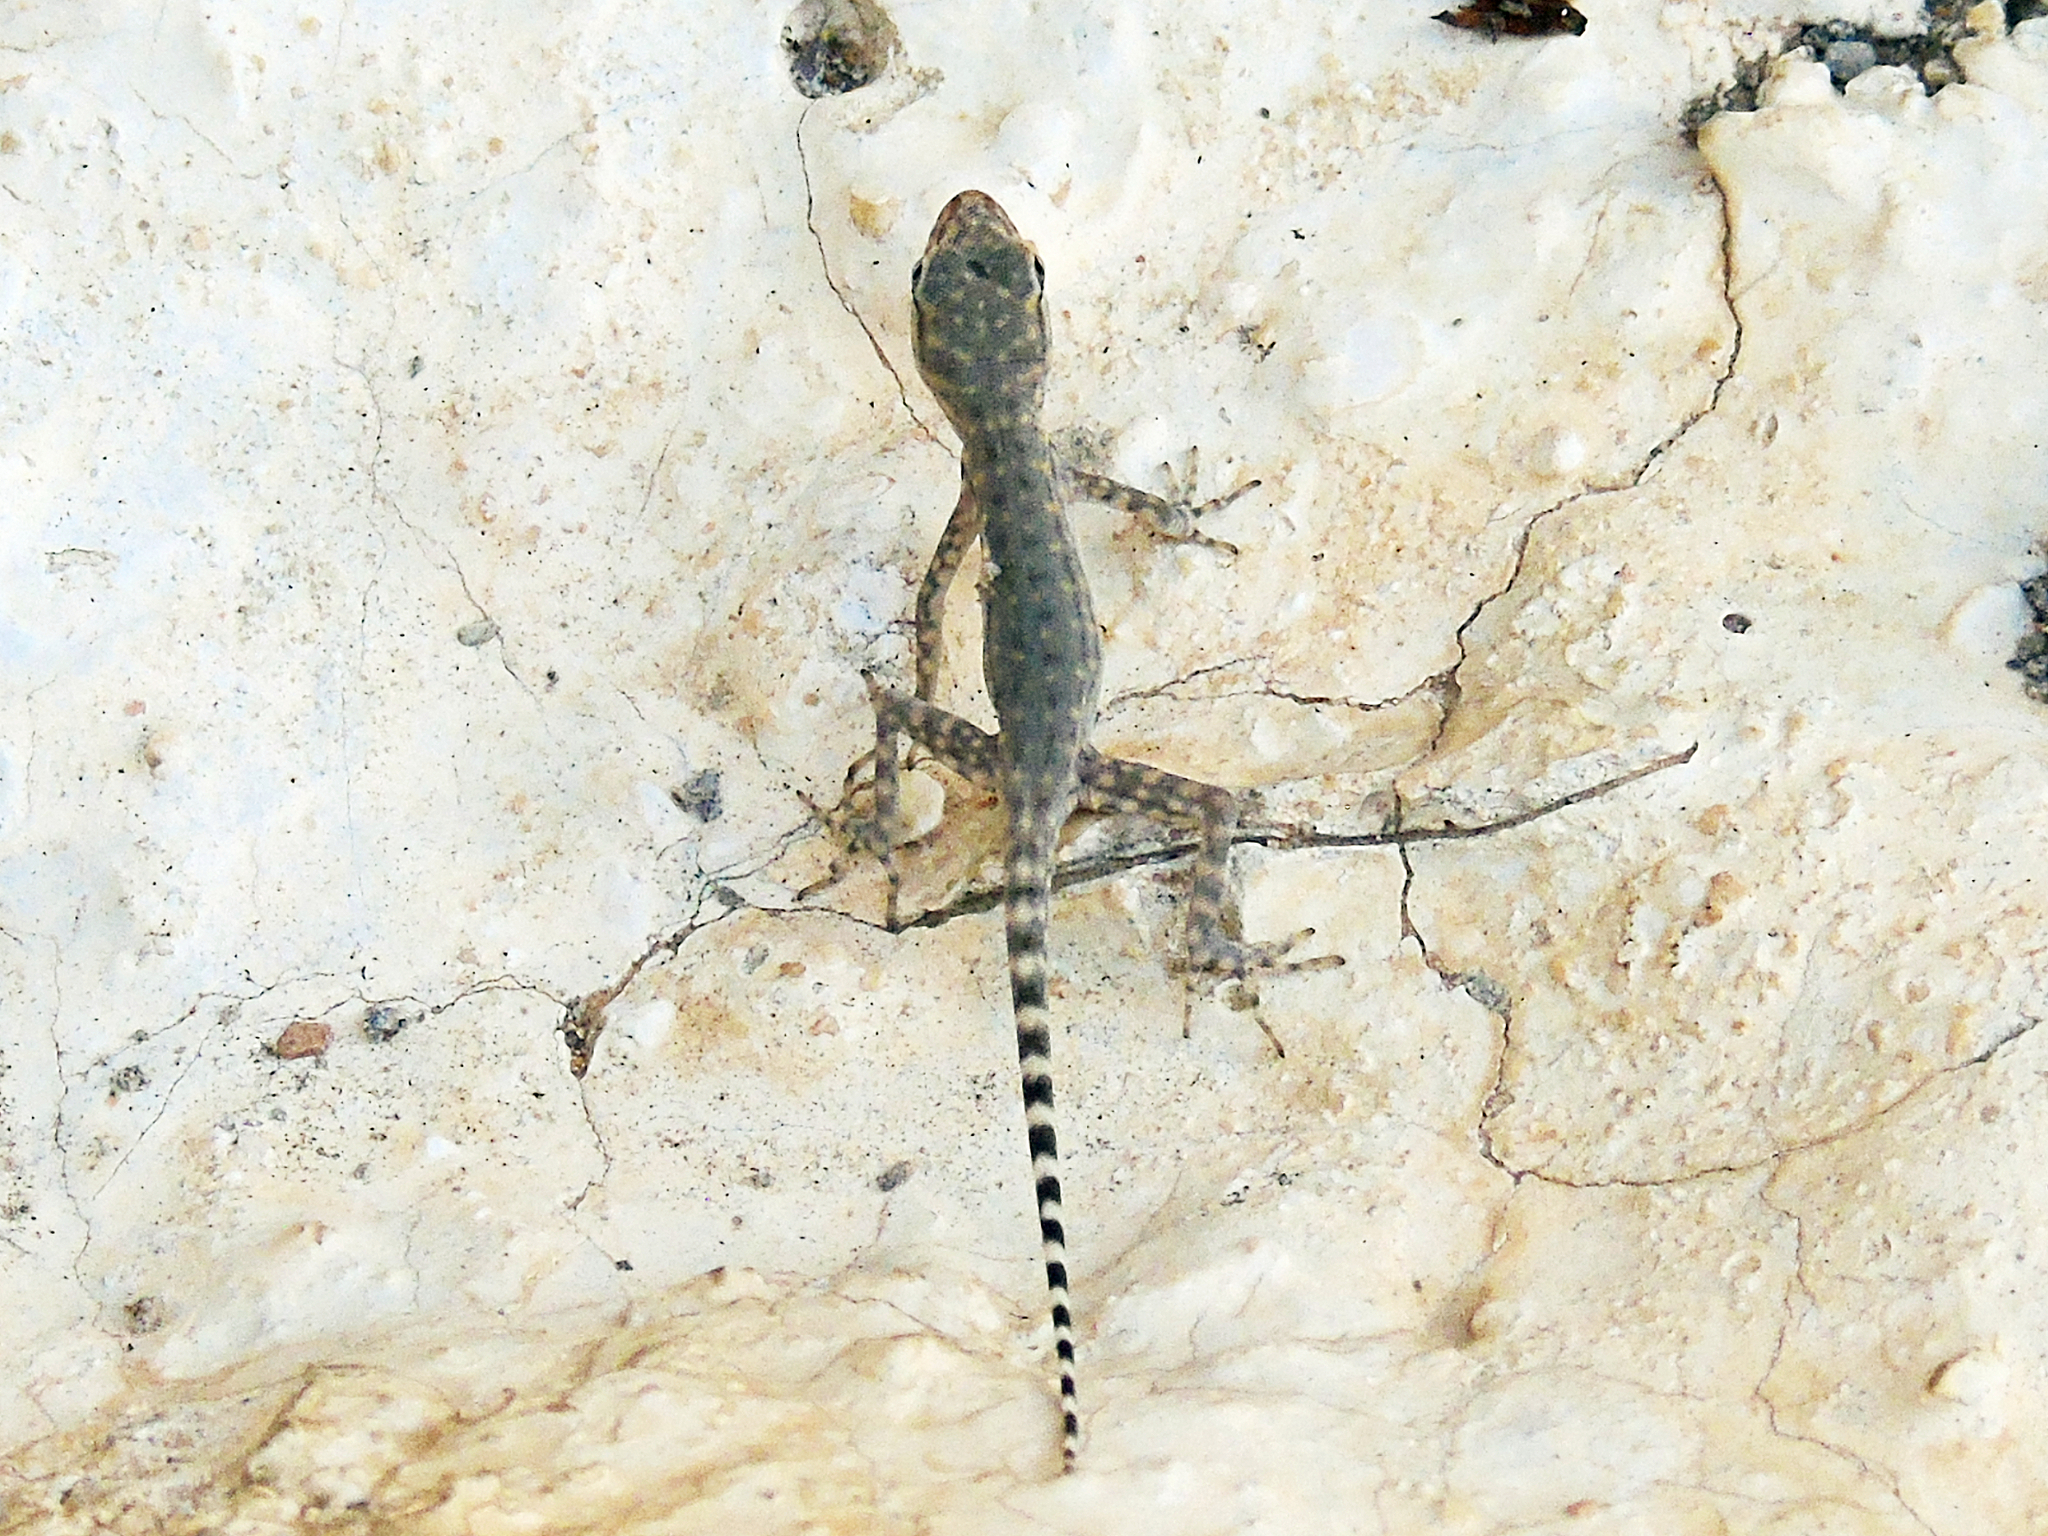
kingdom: Animalia
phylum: Chordata
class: Squamata
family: Sphaerodactylidae
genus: Pristurus
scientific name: Pristurus celerrimus
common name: Bar-tailed semaphore gecko
